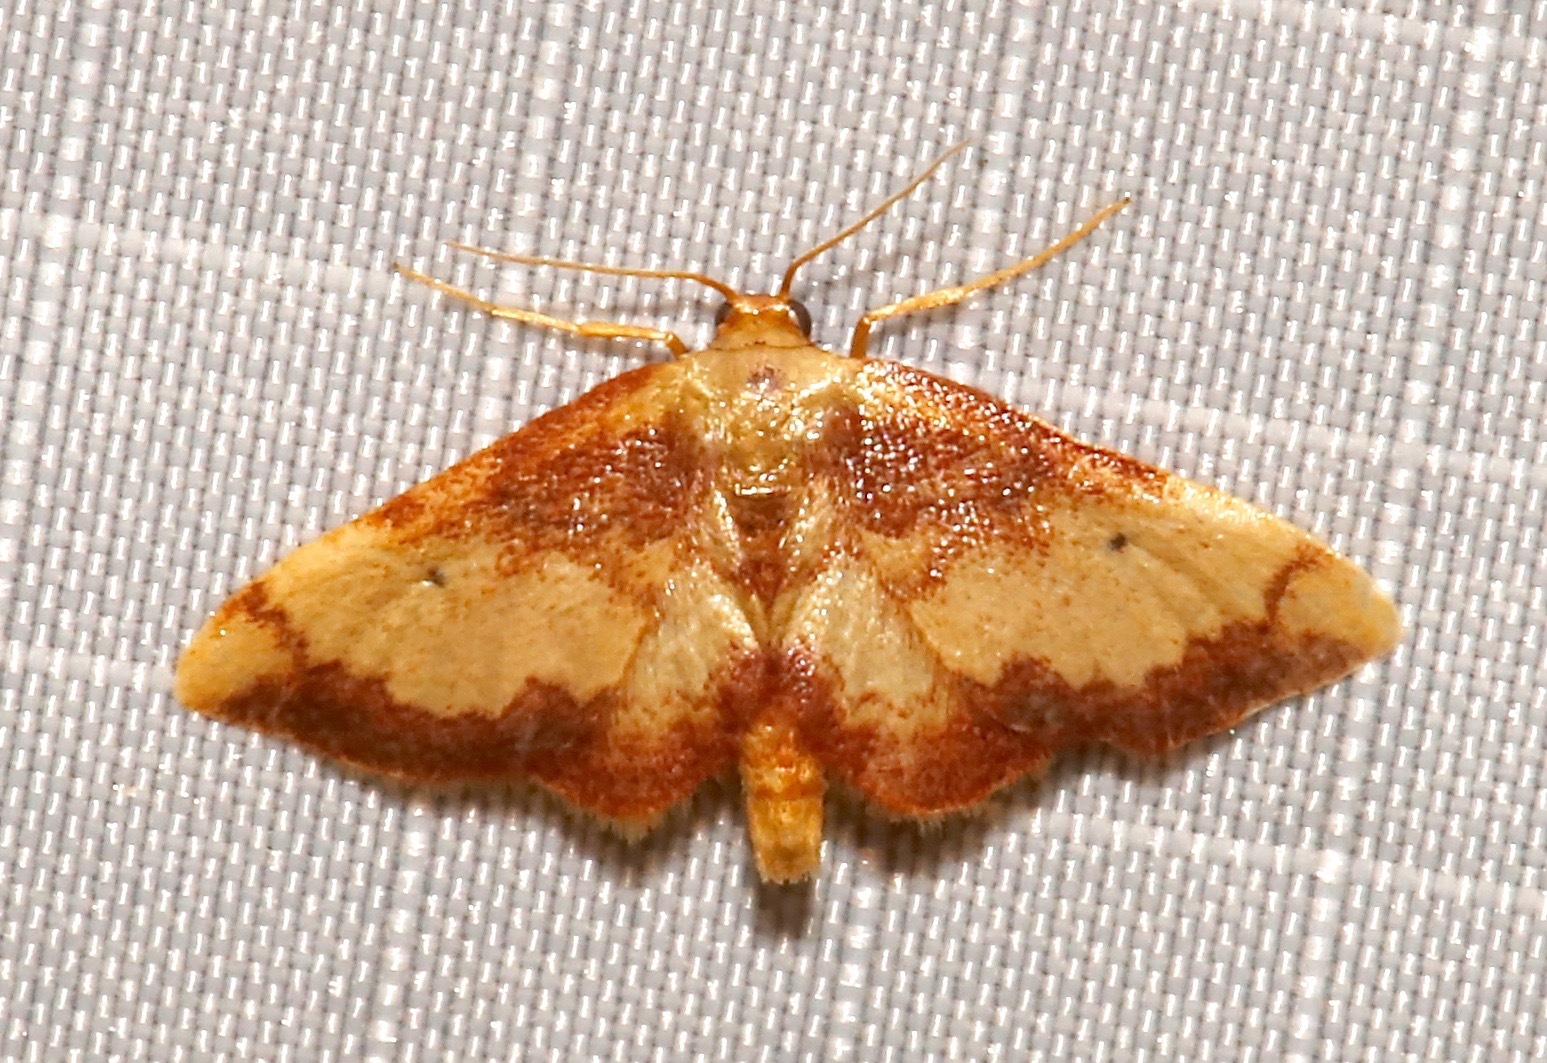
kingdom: Animalia
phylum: Arthropoda
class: Insecta
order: Lepidoptera
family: Geometridae
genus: Idaea
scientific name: Idaea demissaria
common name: Red-bordered wave
